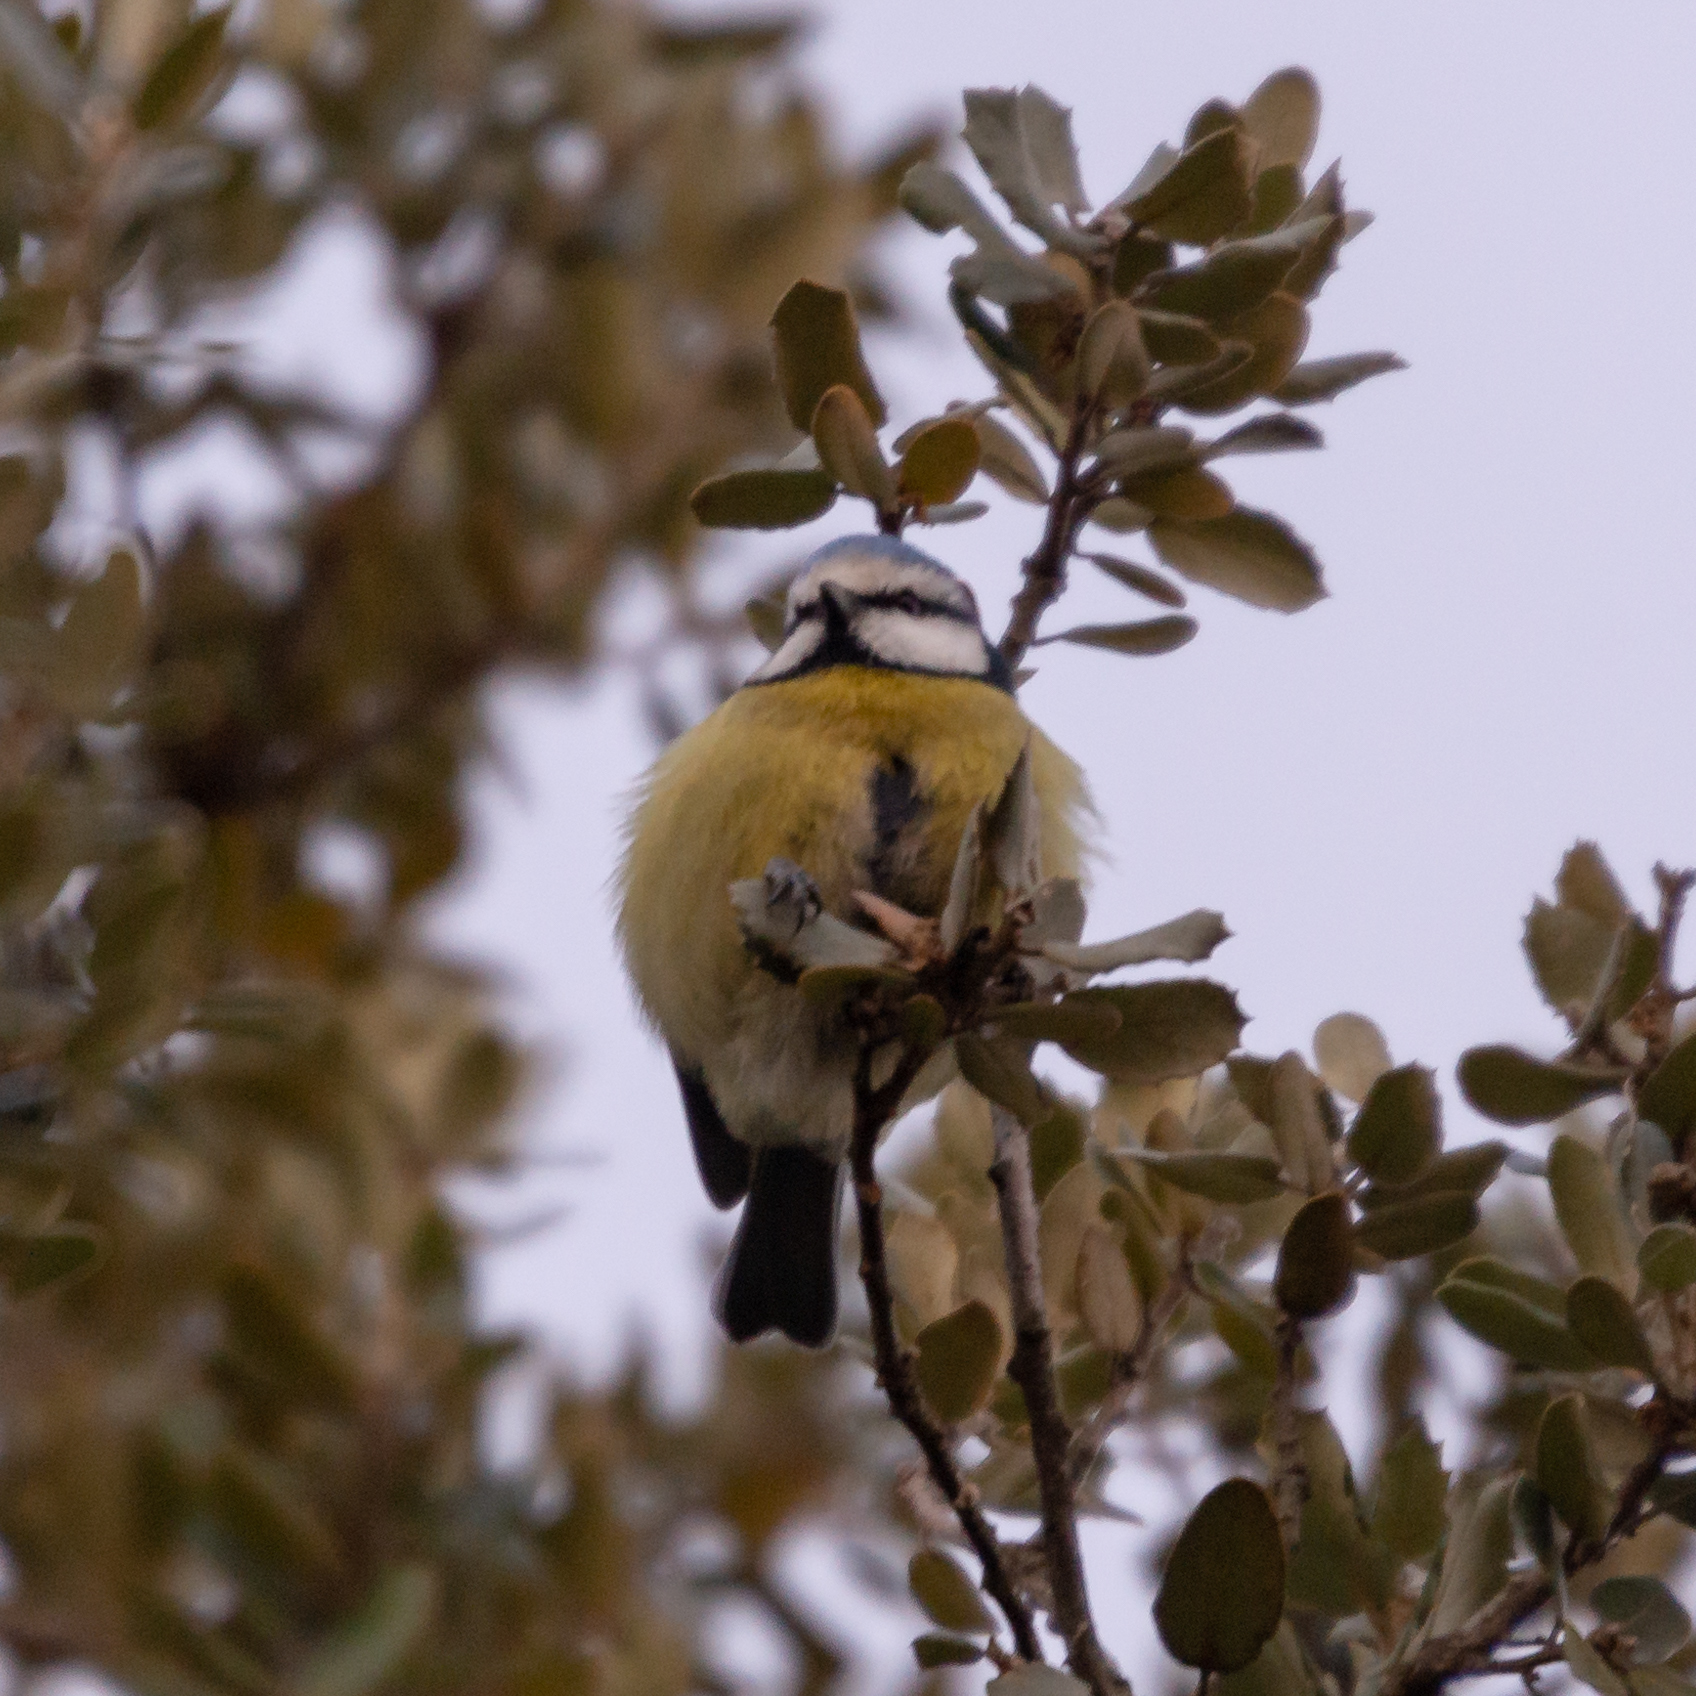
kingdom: Animalia
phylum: Chordata
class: Aves
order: Passeriformes
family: Paridae
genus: Cyanistes
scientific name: Cyanistes caeruleus
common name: Eurasian blue tit
